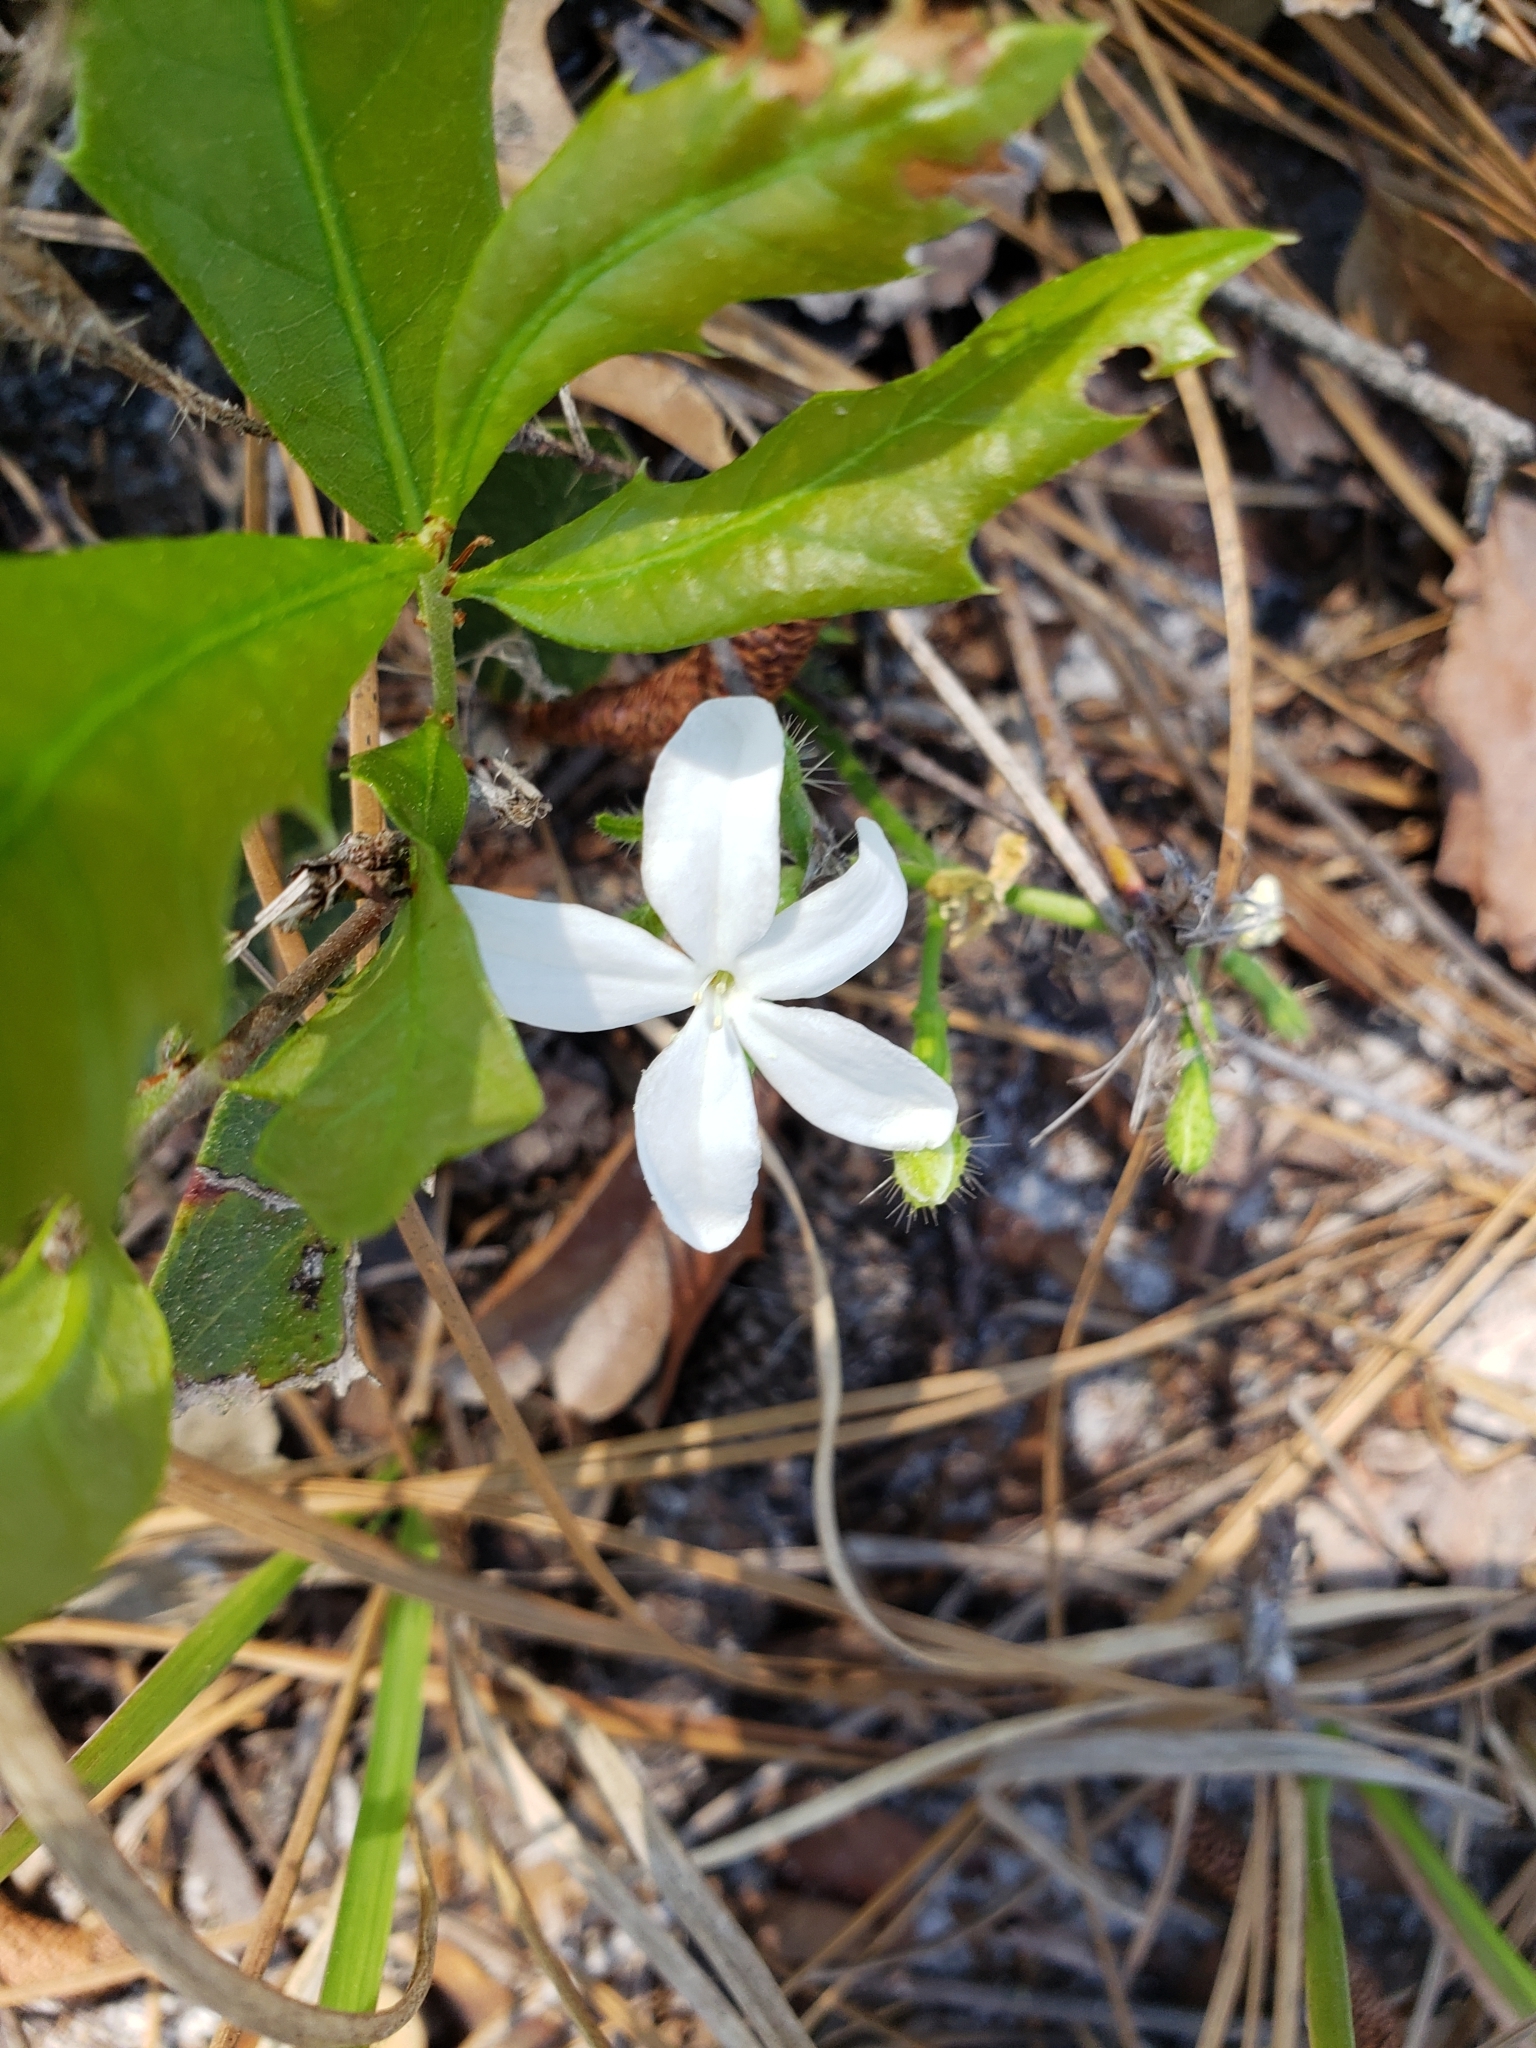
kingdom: Plantae
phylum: Tracheophyta
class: Magnoliopsida
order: Malpighiales
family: Euphorbiaceae
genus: Cnidoscolus
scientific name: Cnidoscolus stimulosus
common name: Bull-nettle
